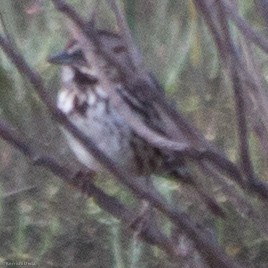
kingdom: Animalia
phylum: Chordata
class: Aves
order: Passeriformes
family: Passerellidae
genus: Melospiza
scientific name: Melospiza melodia
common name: Song sparrow
